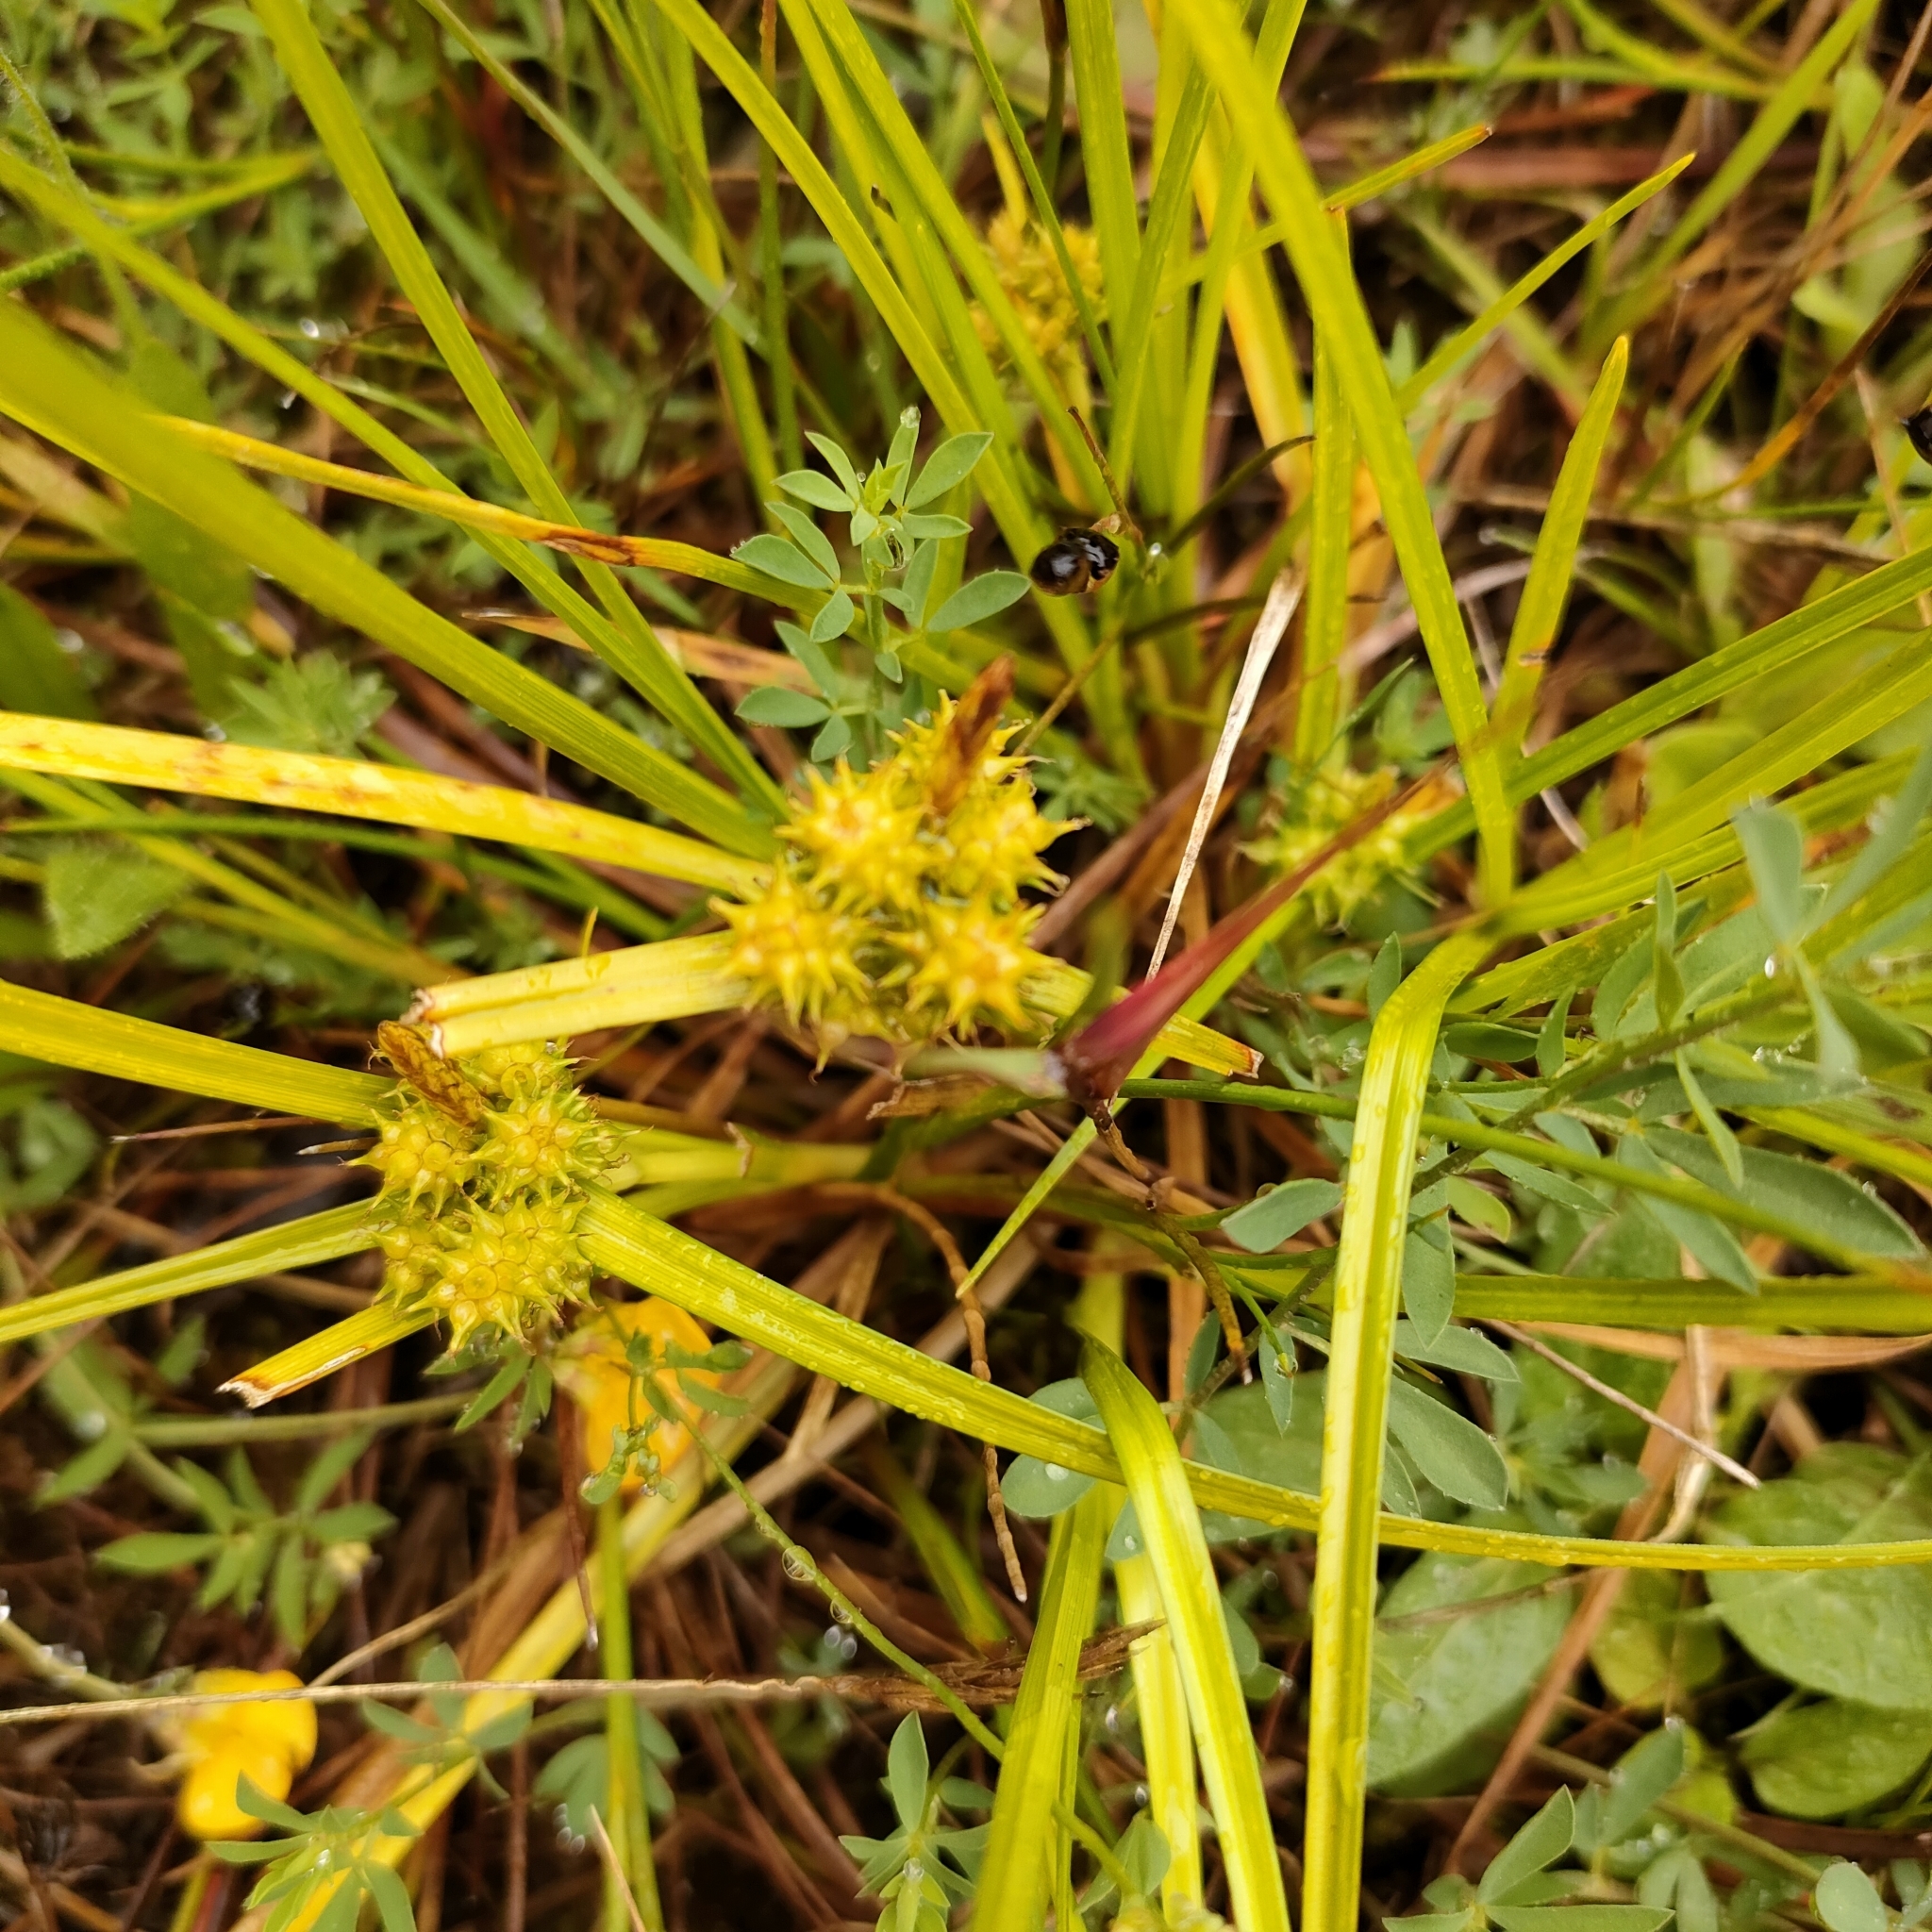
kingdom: Plantae
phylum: Tracheophyta
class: Liliopsida
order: Poales
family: Cyperaceae
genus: Carex
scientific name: Carex flaviformis
